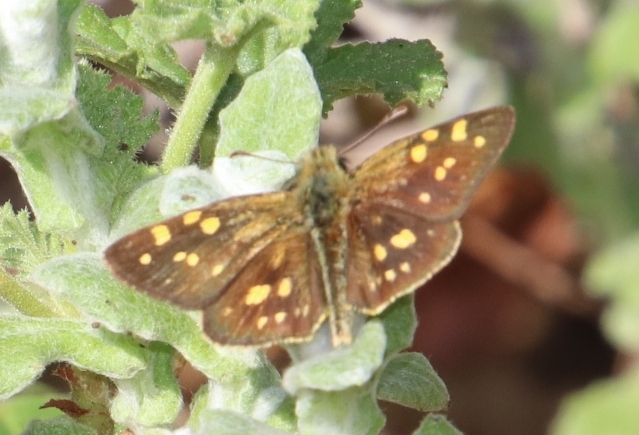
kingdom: Animalia
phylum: Arthropoda
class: Insecta
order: Lepidoptera
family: Hesperiidae
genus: Metisella
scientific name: Metisella malgacha
